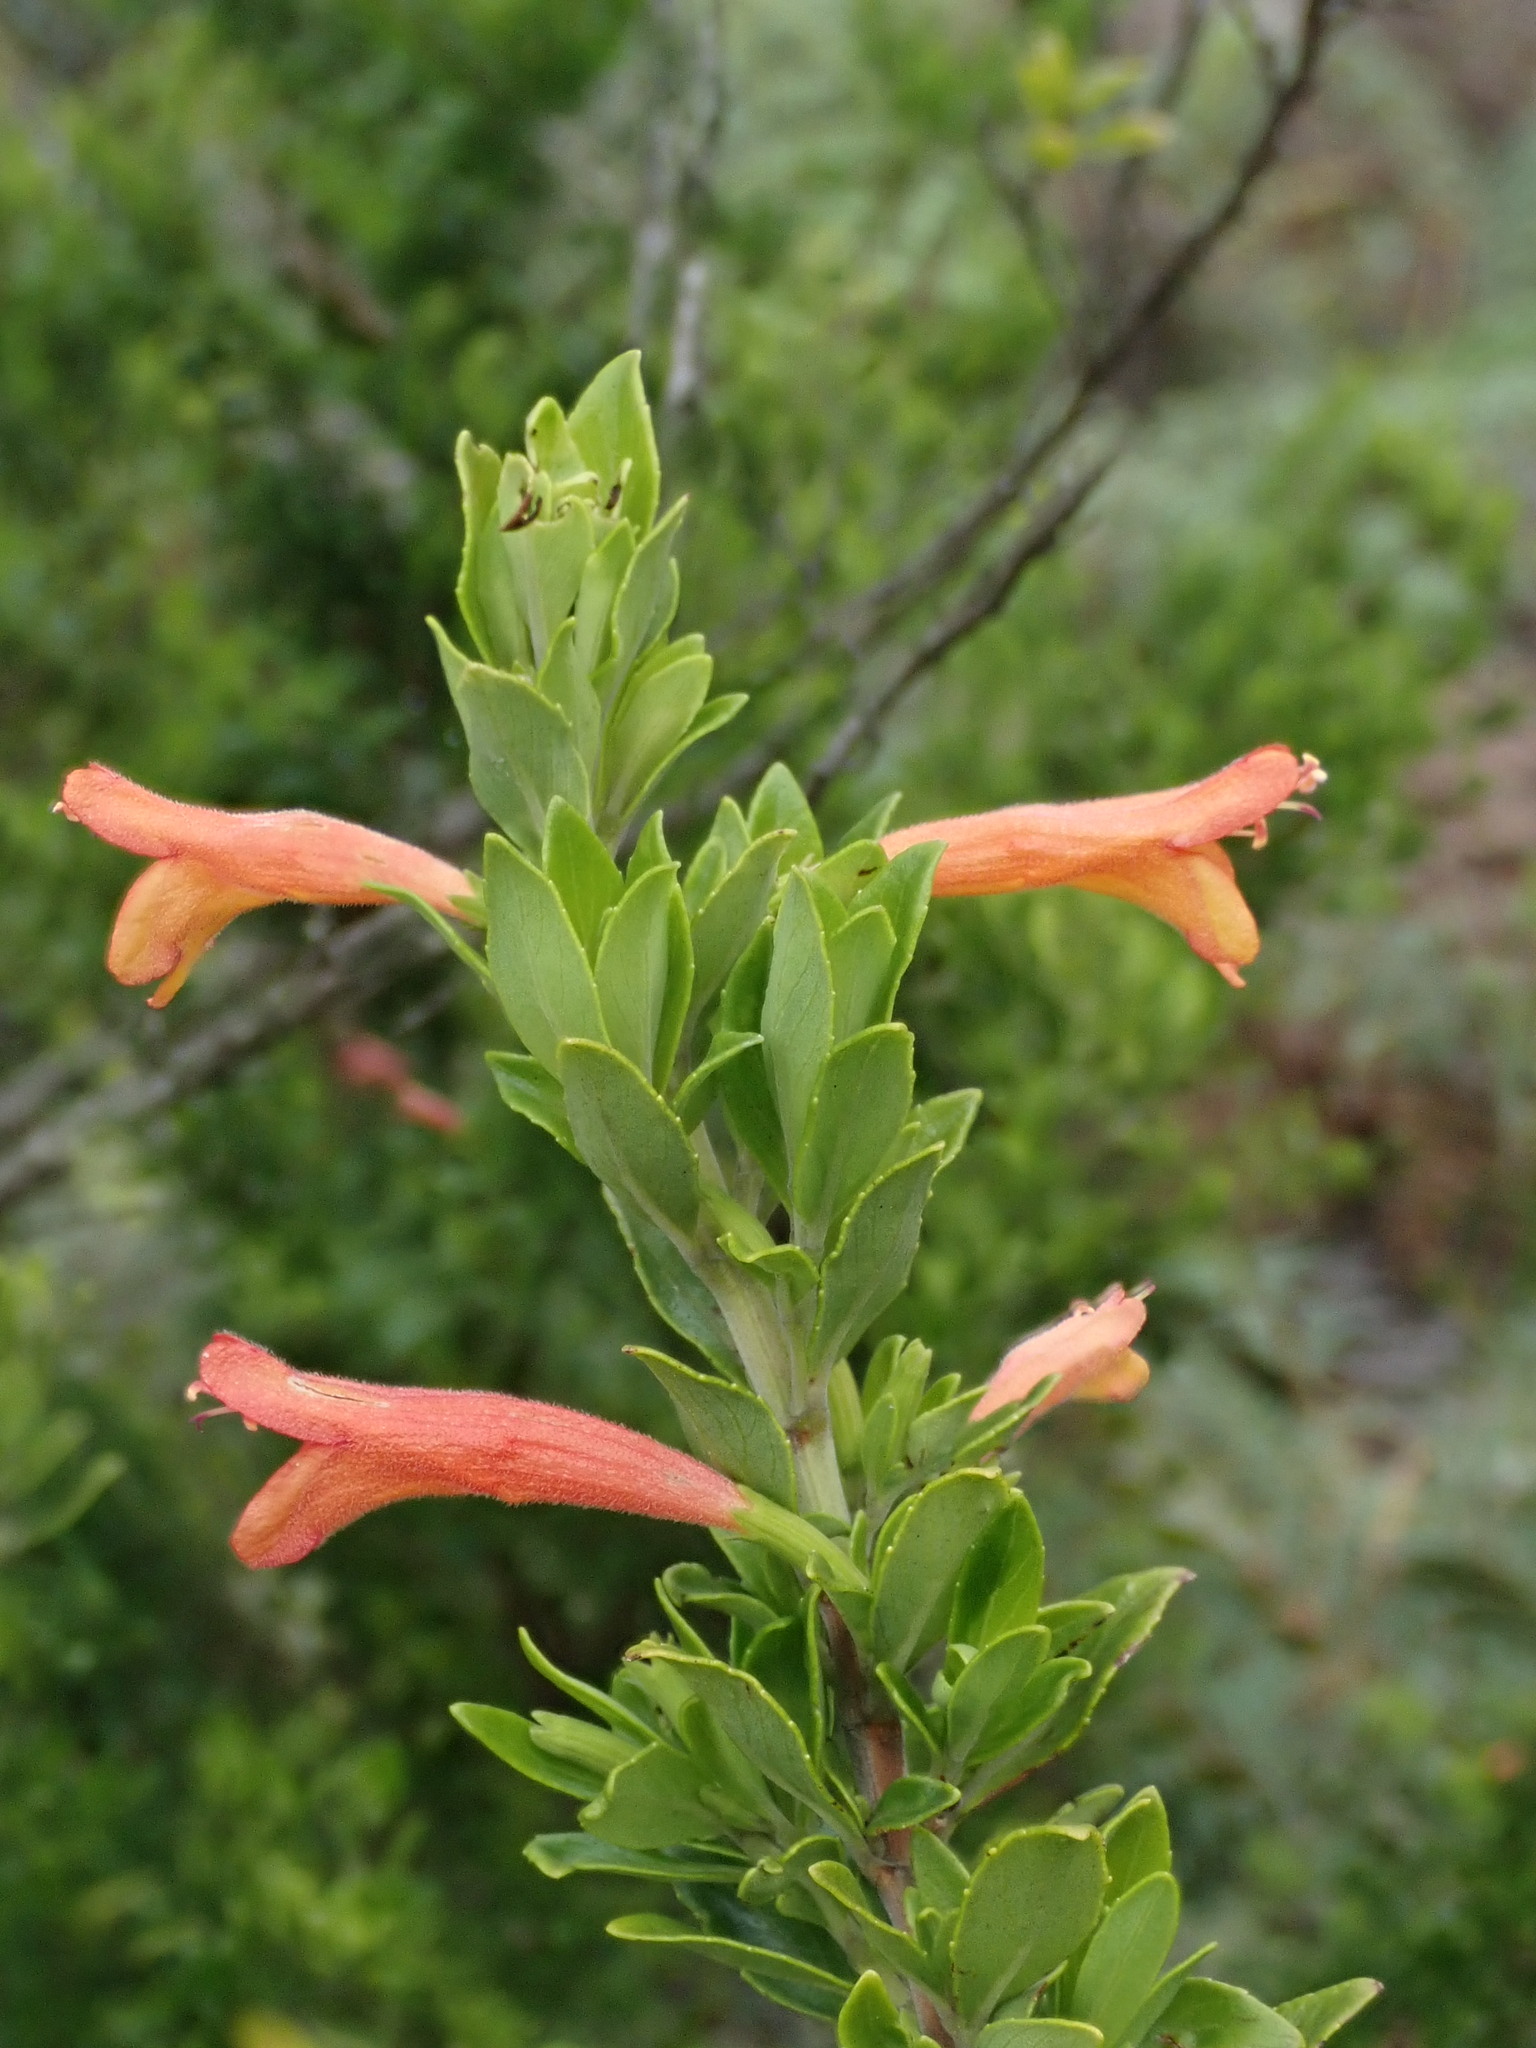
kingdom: Plantae
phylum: Tracheophyta
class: Magnoliopsida
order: Lamiales
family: Lamiaceae
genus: Clinopodium
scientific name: Clinopodium taxifolium
